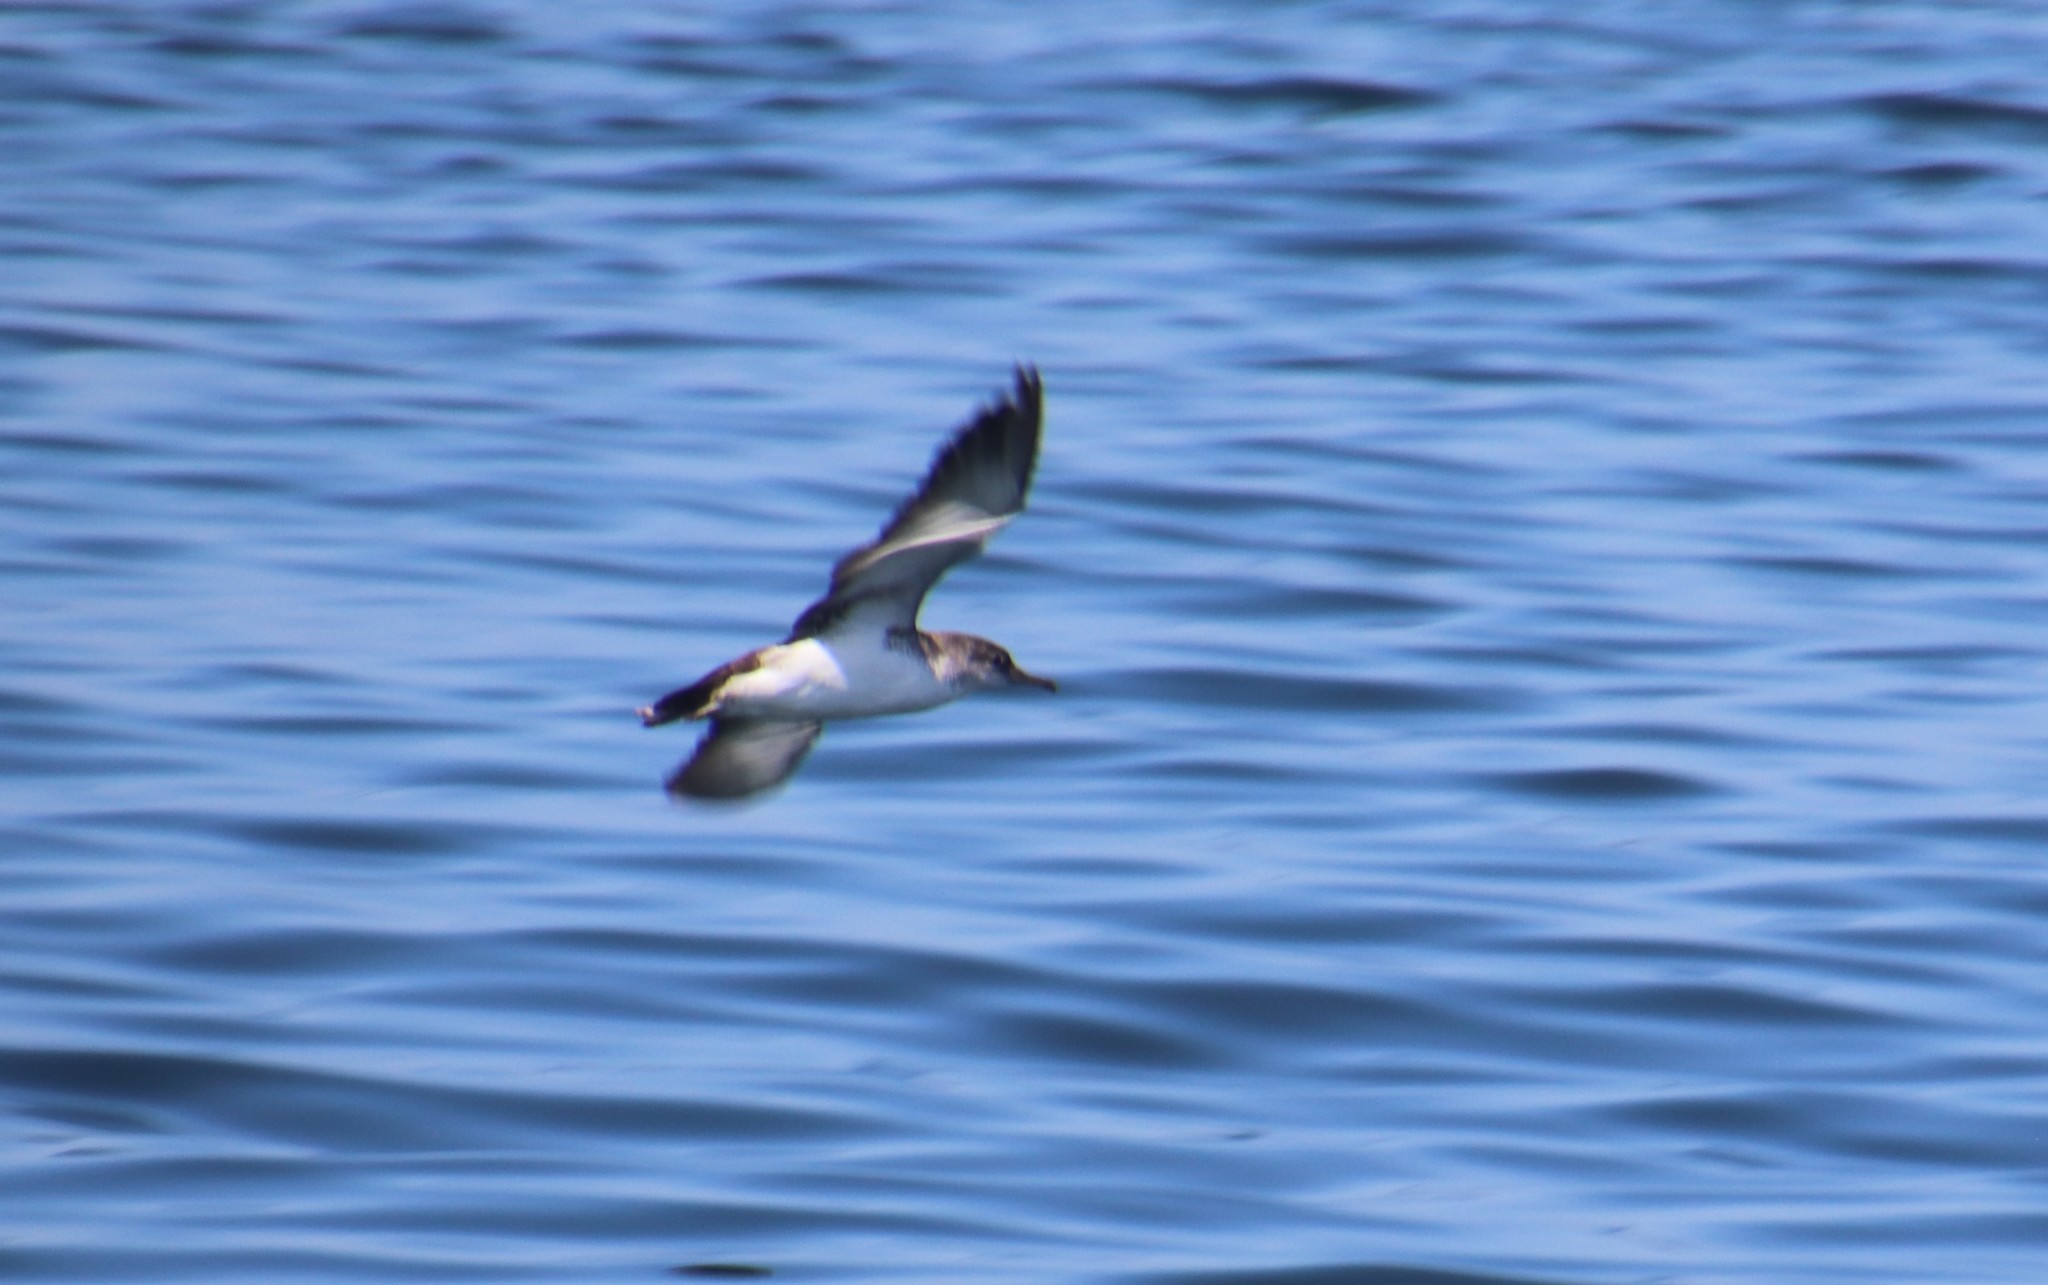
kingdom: Animalia
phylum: Chordata
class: Aves
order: Procellariiformes
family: Procellariidae
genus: Puffinus
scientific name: Puffinus opisthomelas
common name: Black-vented shearwater
